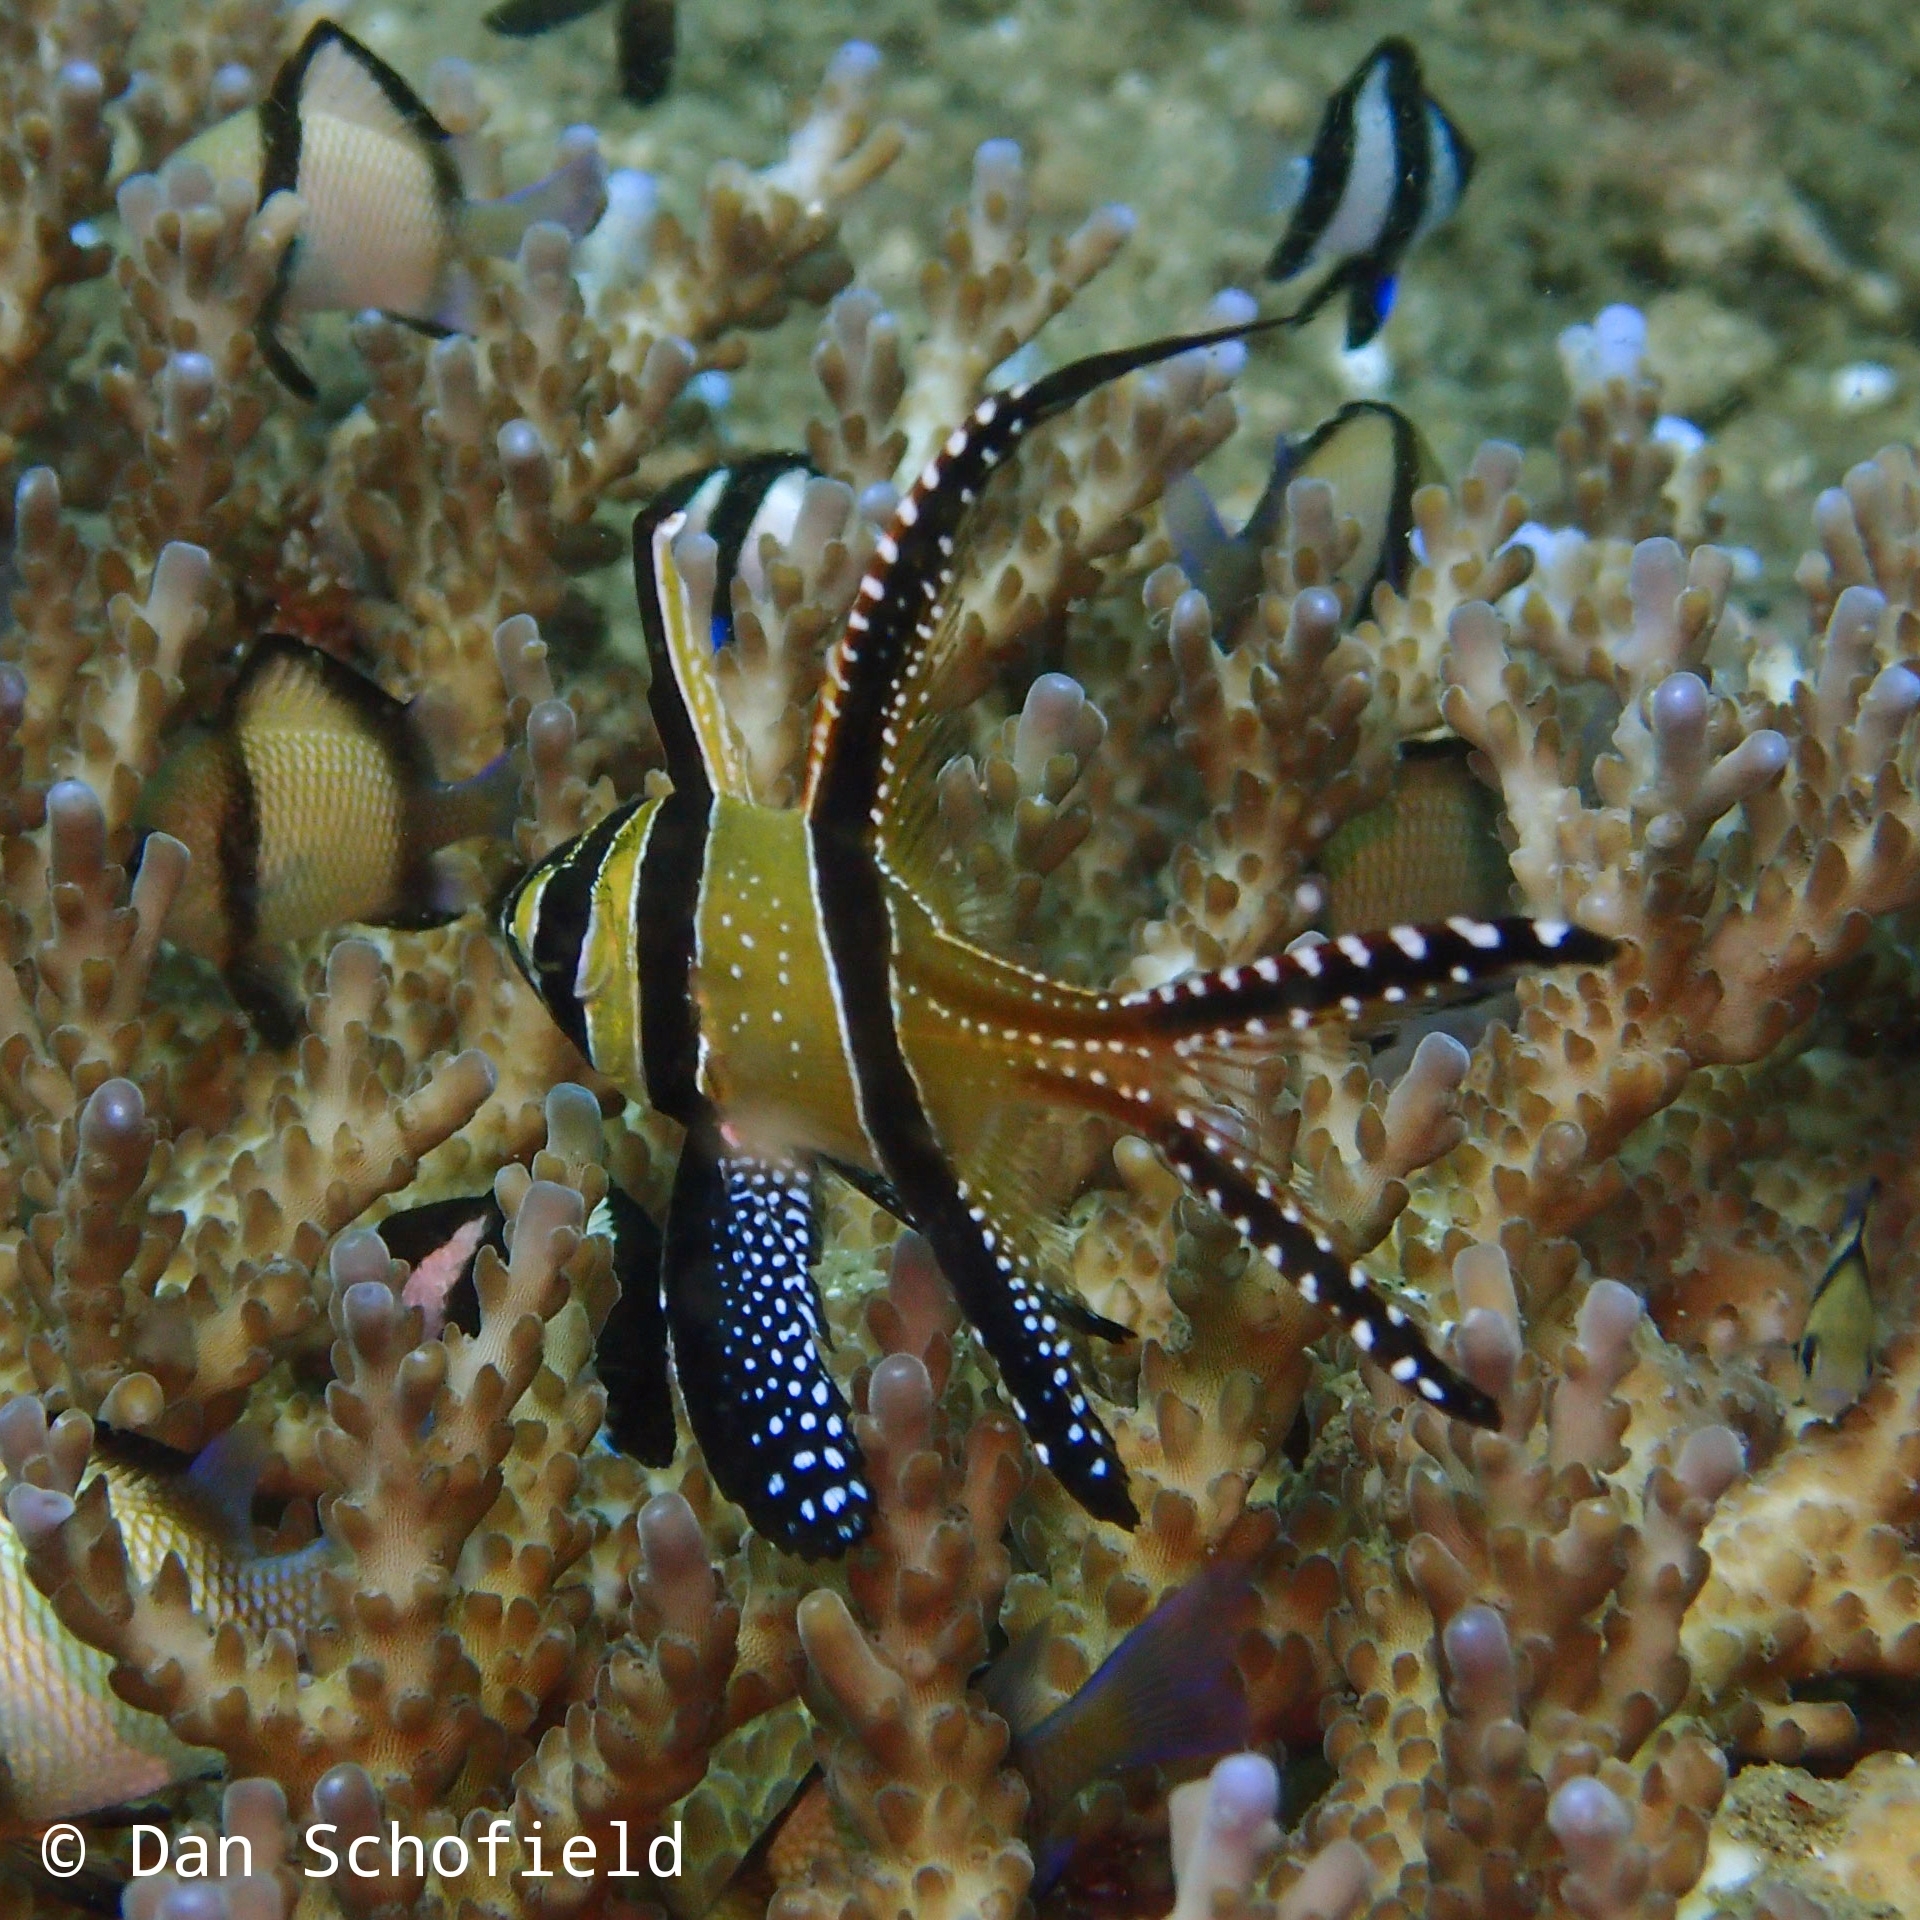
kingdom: Animalia
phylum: Chordata
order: Perciformes
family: Apogonidae
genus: Pterapogon
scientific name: Pterapogon kauderni
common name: Banggai cardinalfish
